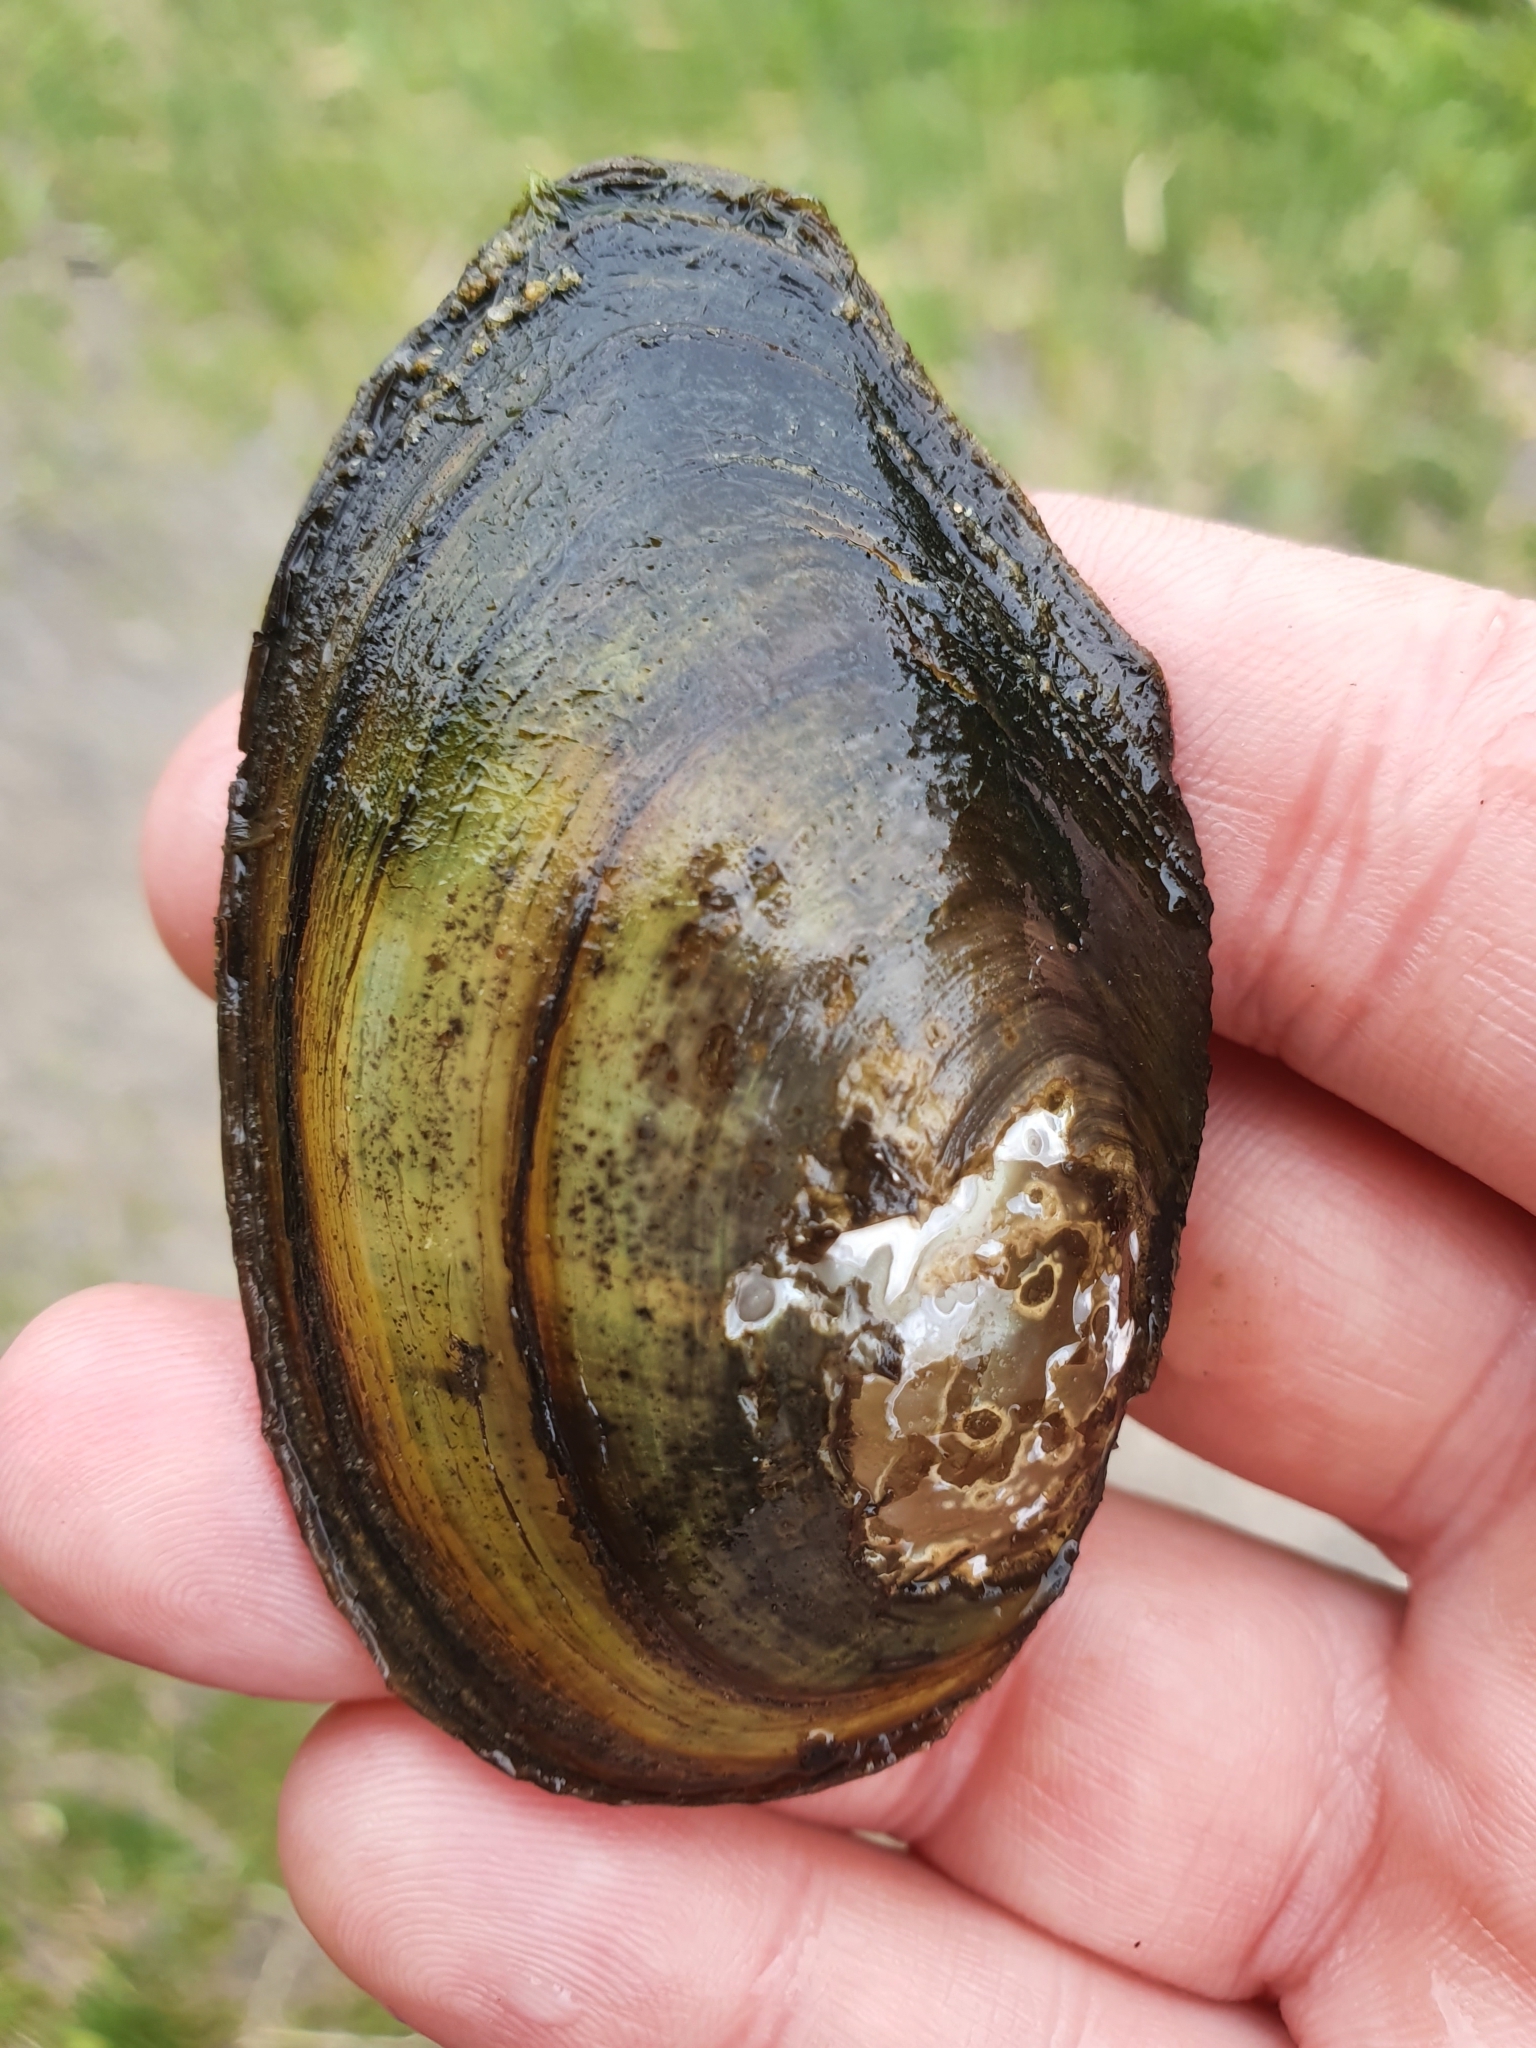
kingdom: Animalia
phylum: Mollusca
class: Bivalvia
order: Unionida
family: Unionidae
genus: Anodonta
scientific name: Anodonta anatina
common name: Duck mussel
